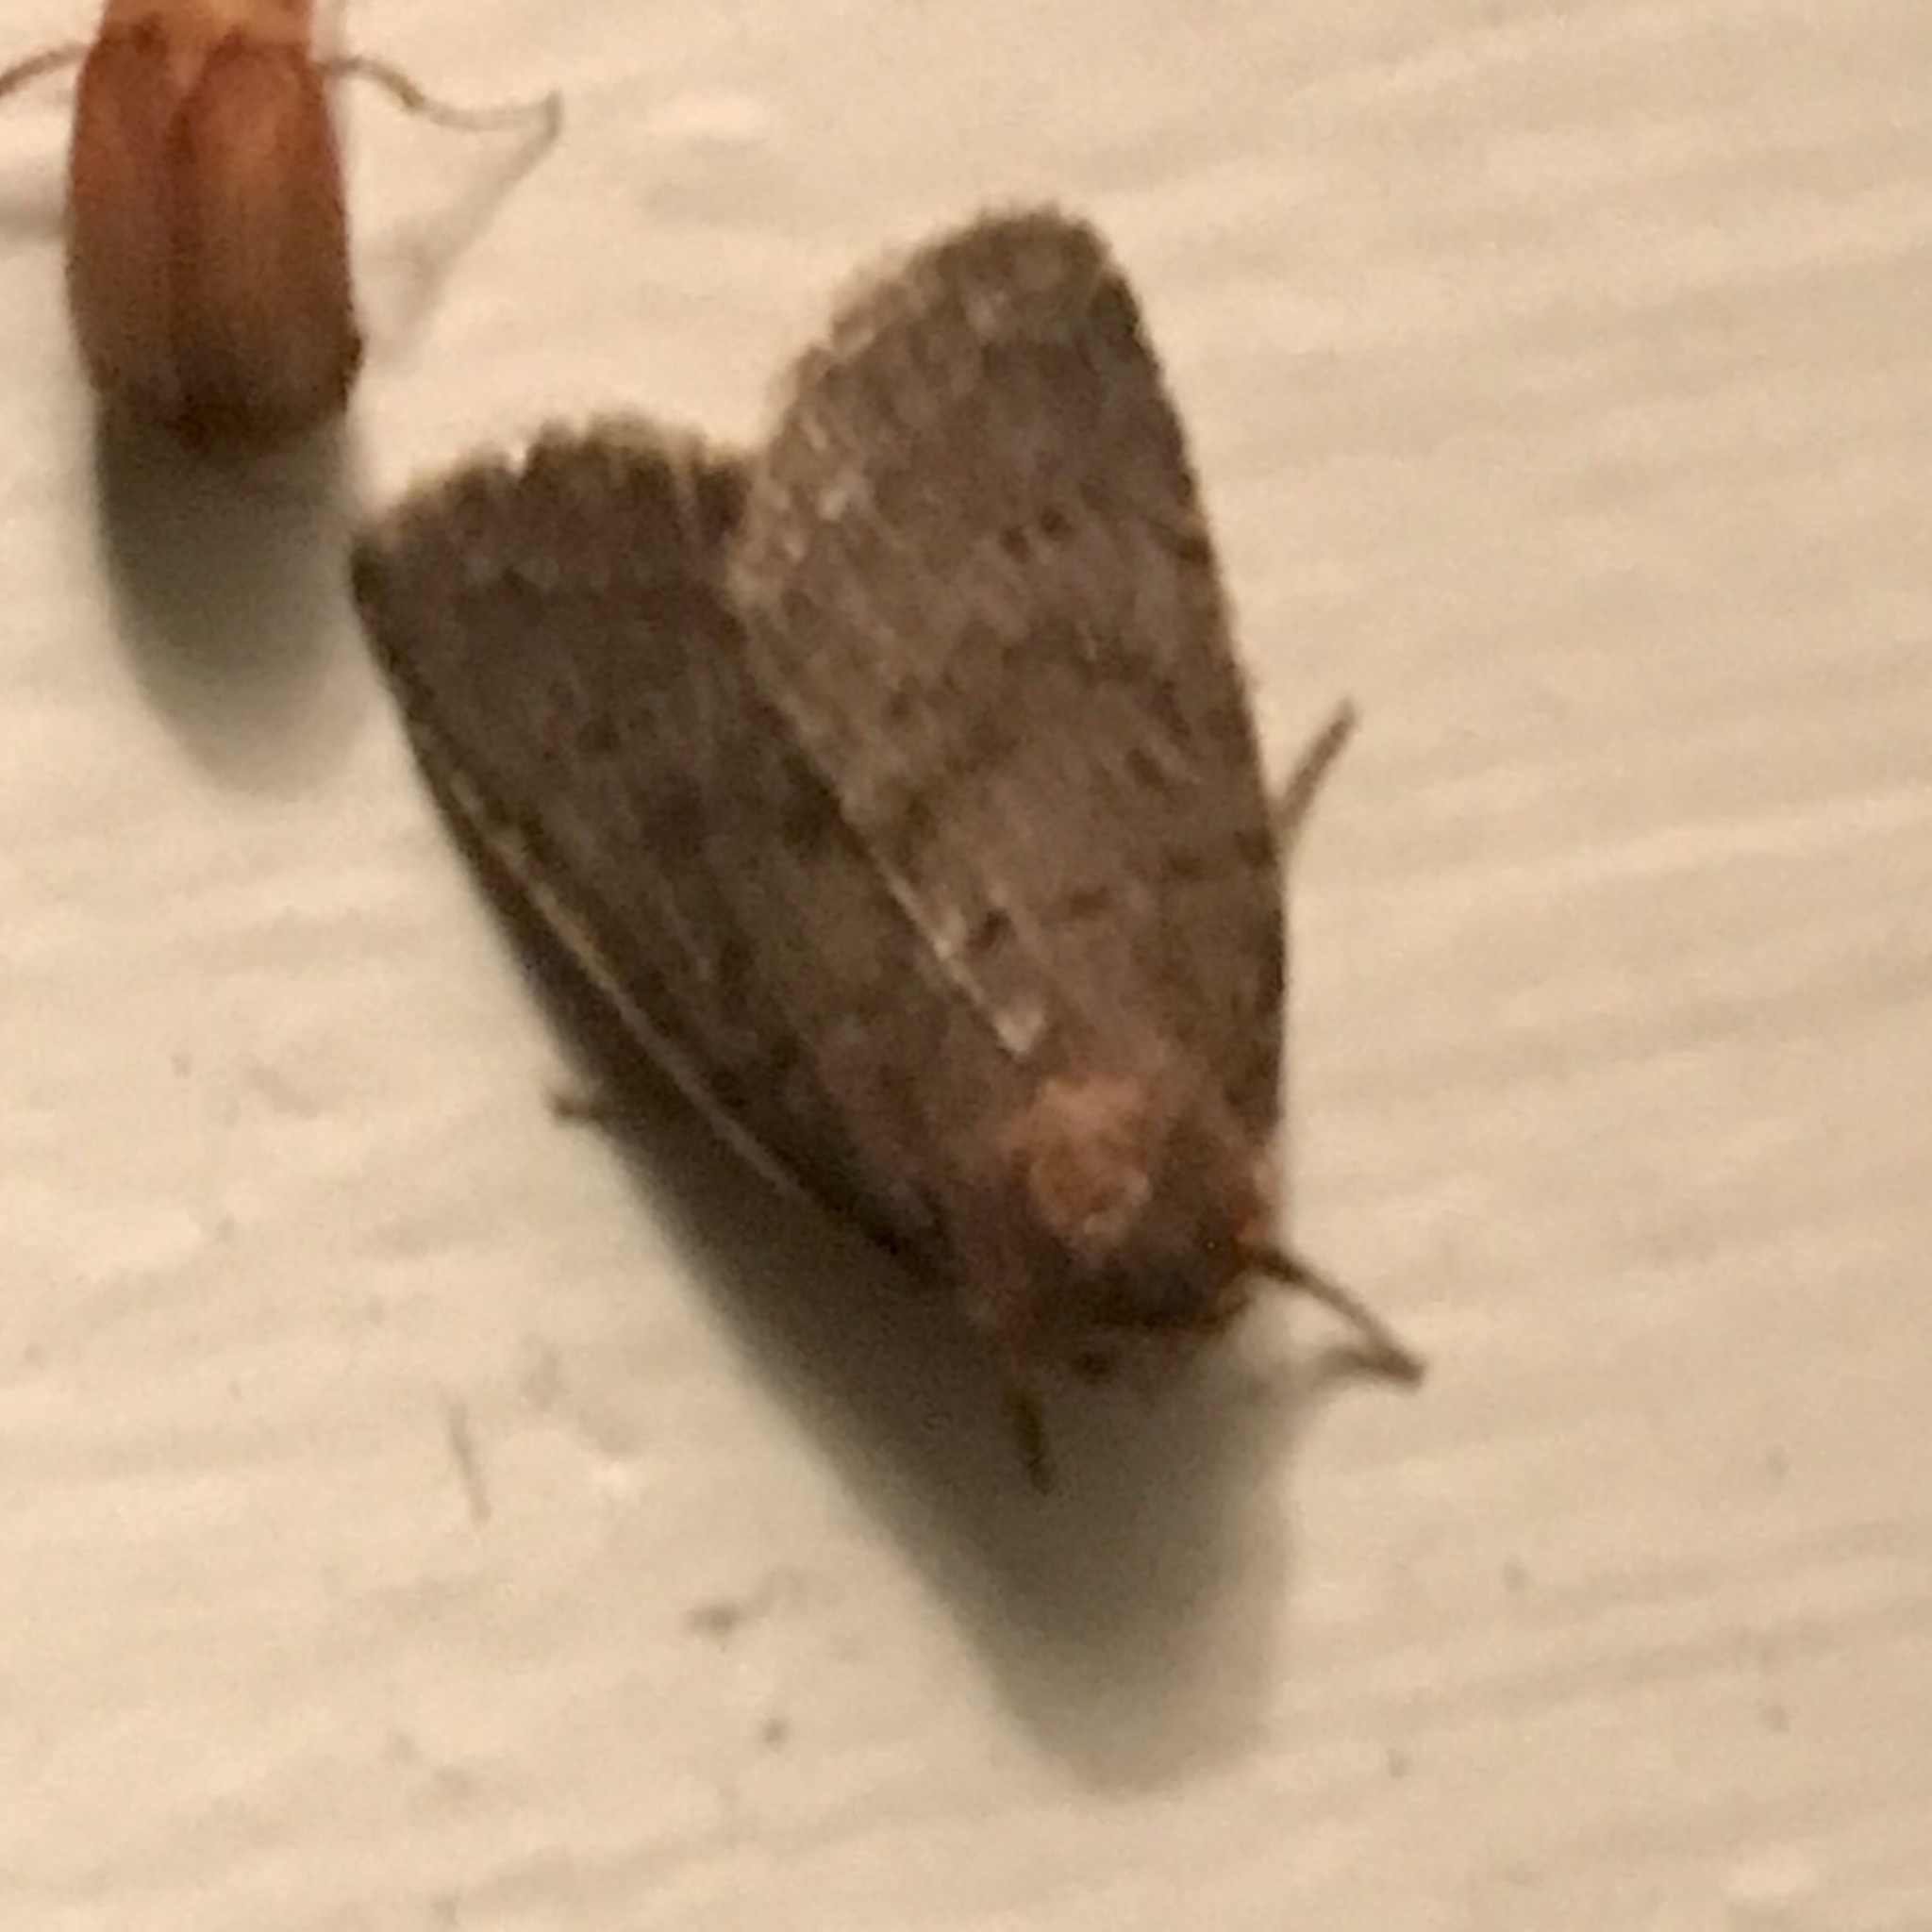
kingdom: Animalia
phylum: Arthropoda
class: Insecta
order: Lepidoptera
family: Noctuidae
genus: Athetis
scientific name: Athetis tarda
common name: Slowpoke moth
